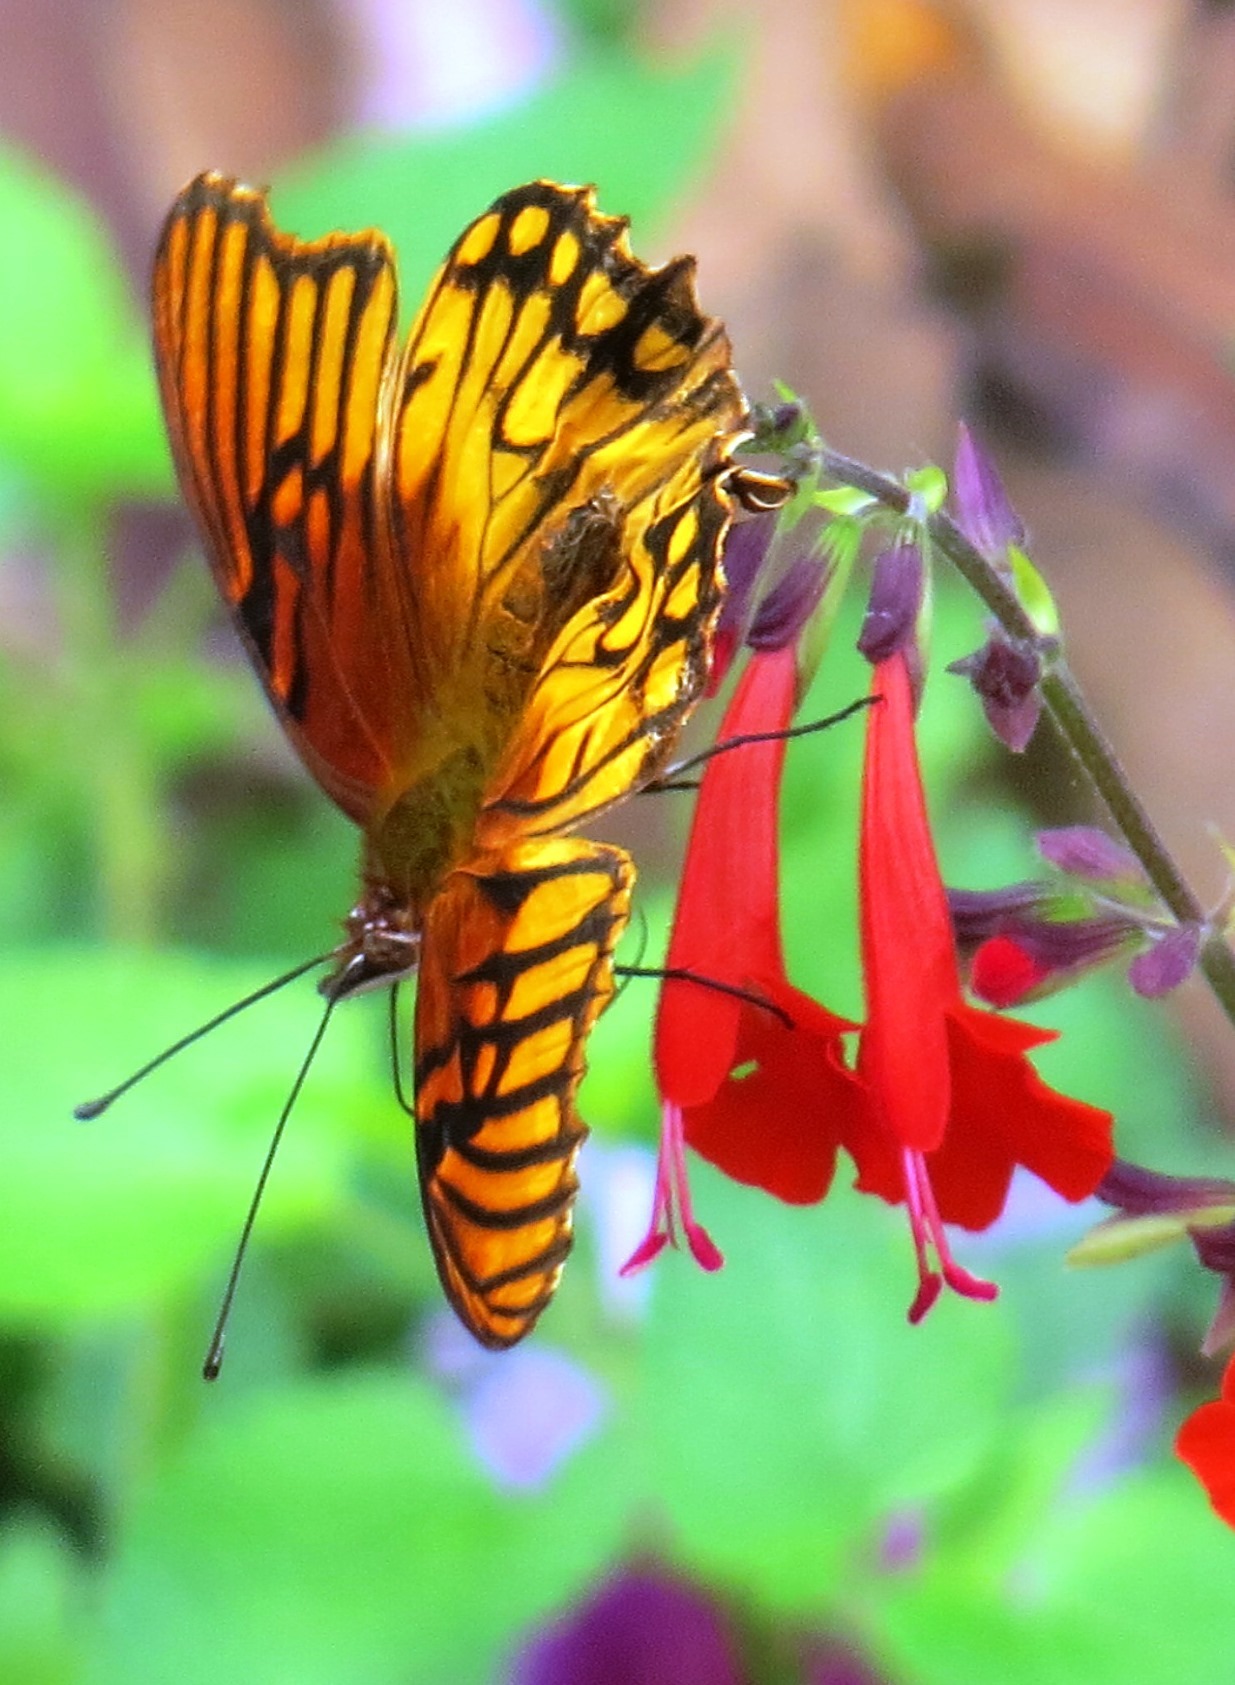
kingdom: Animalia
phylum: Arthropoda
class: Insecta
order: Lepidoptera
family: Nymphalidae
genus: Dione
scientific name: Dione moneta
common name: Mexican silverspot
